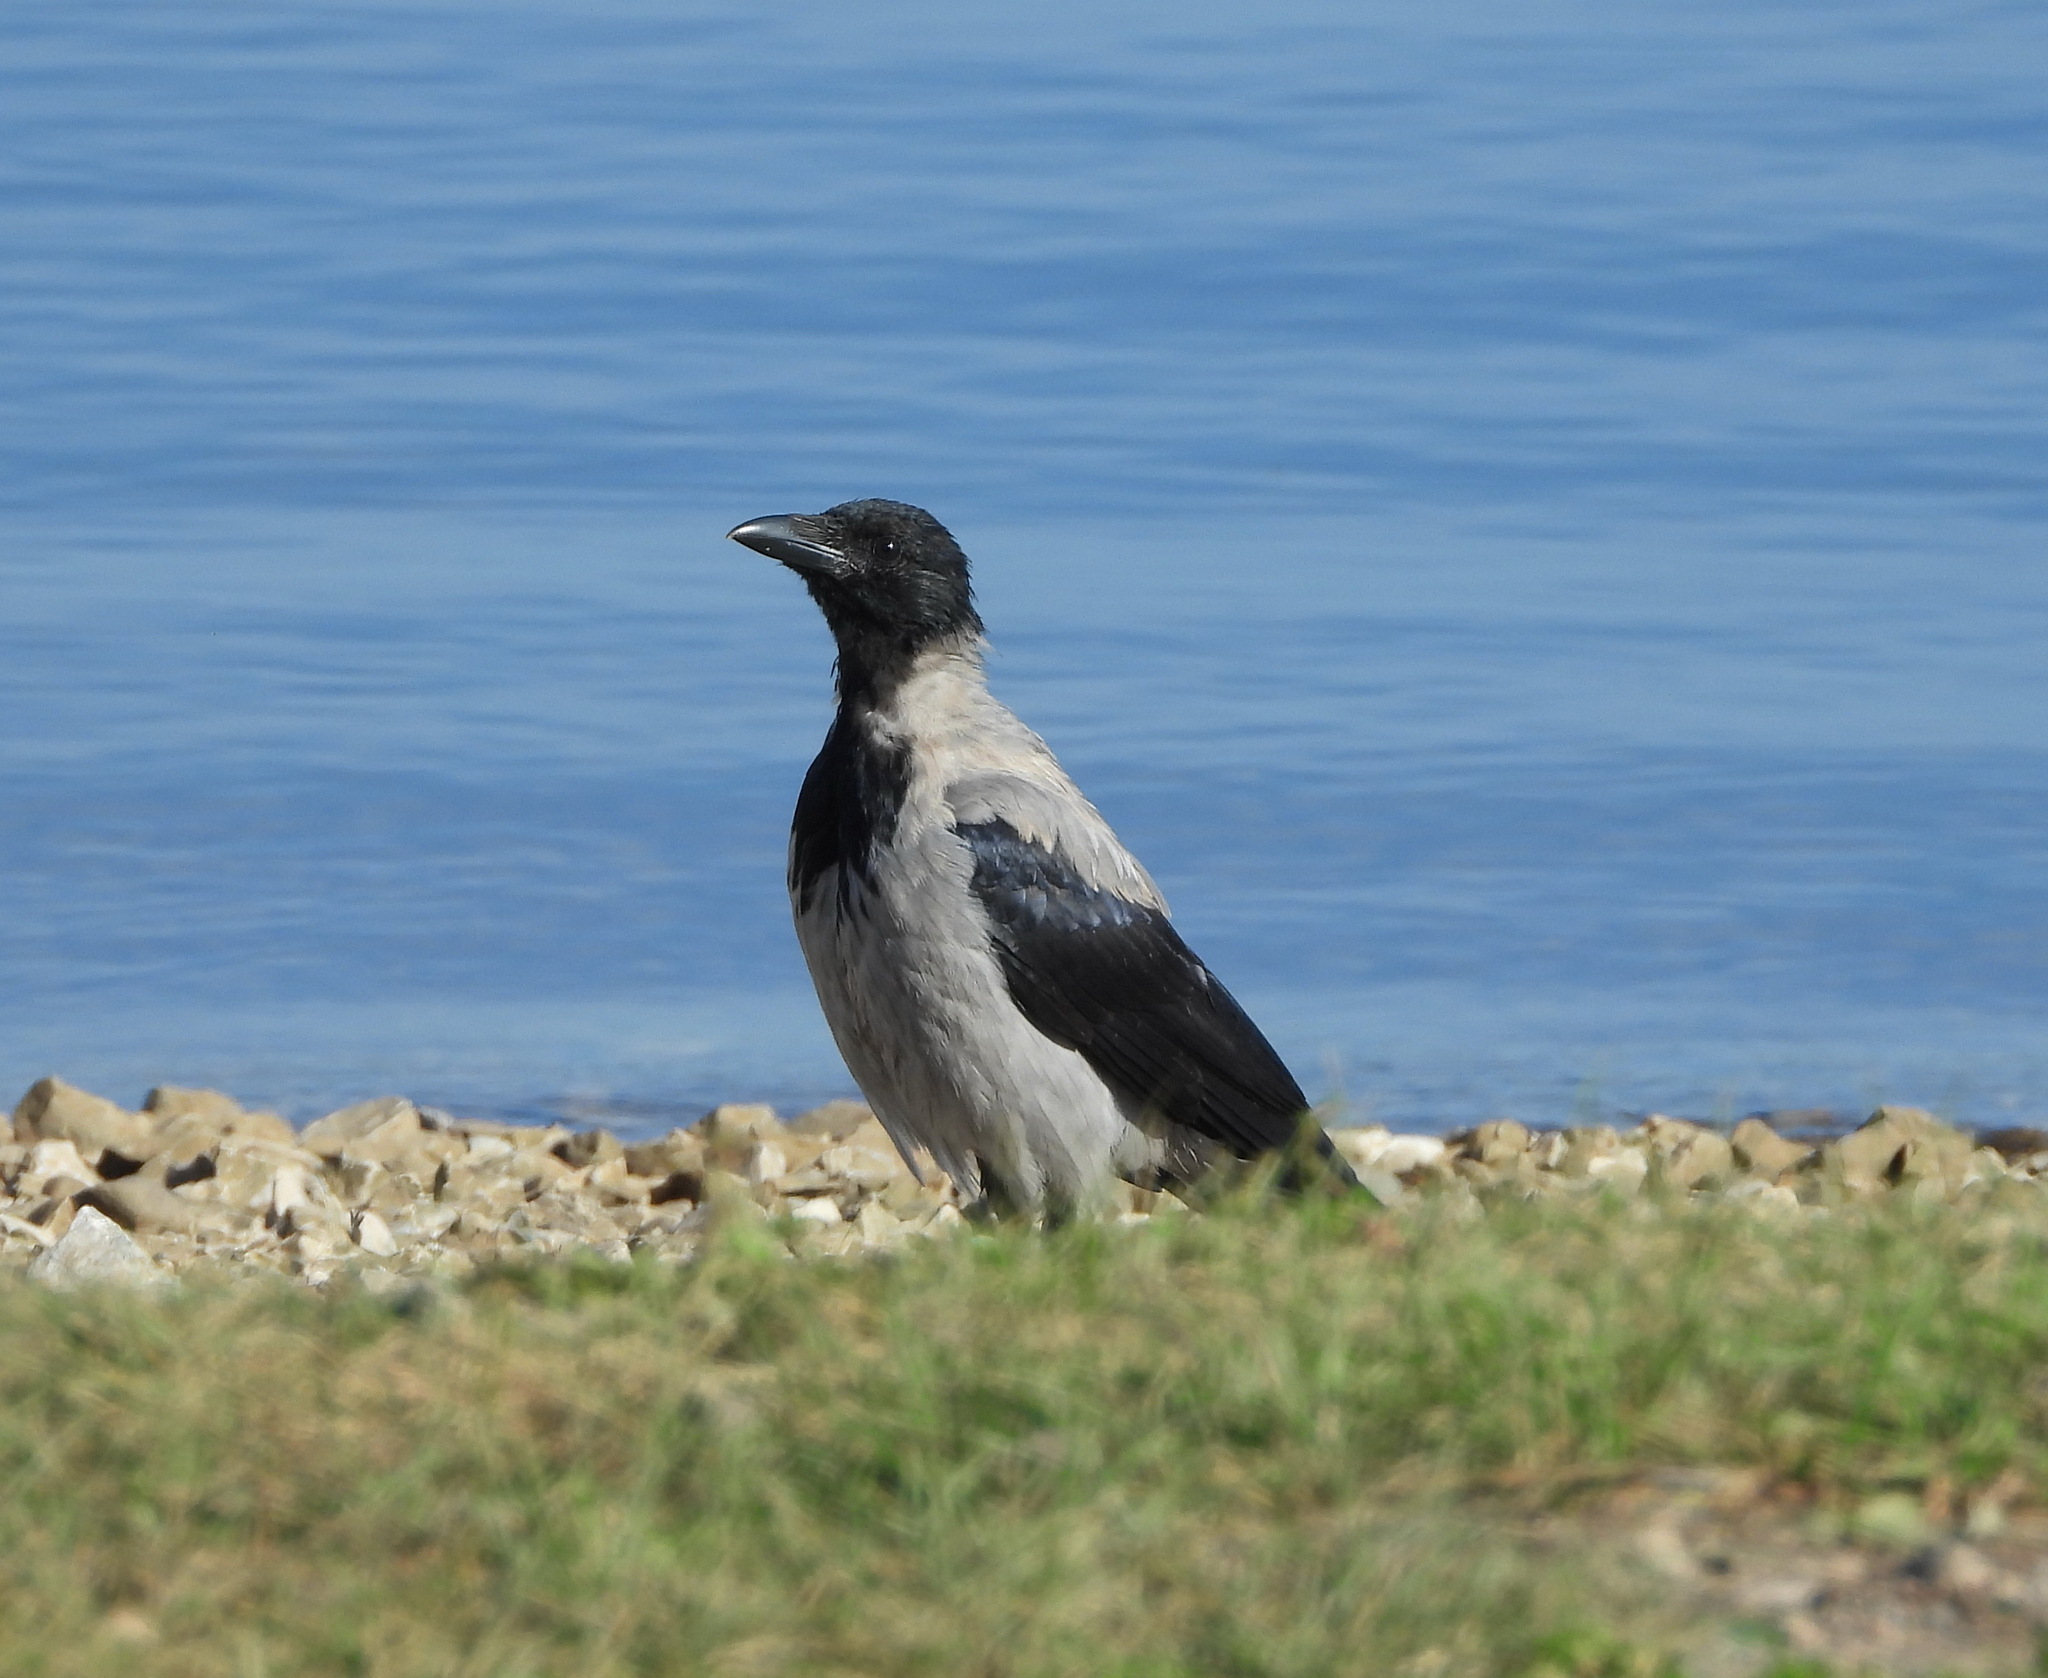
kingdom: Animalia
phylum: Chordata
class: Aves
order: Passeriformes
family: Corvidae
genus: Corvus
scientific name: Corvus cornix
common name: Hooded crow
